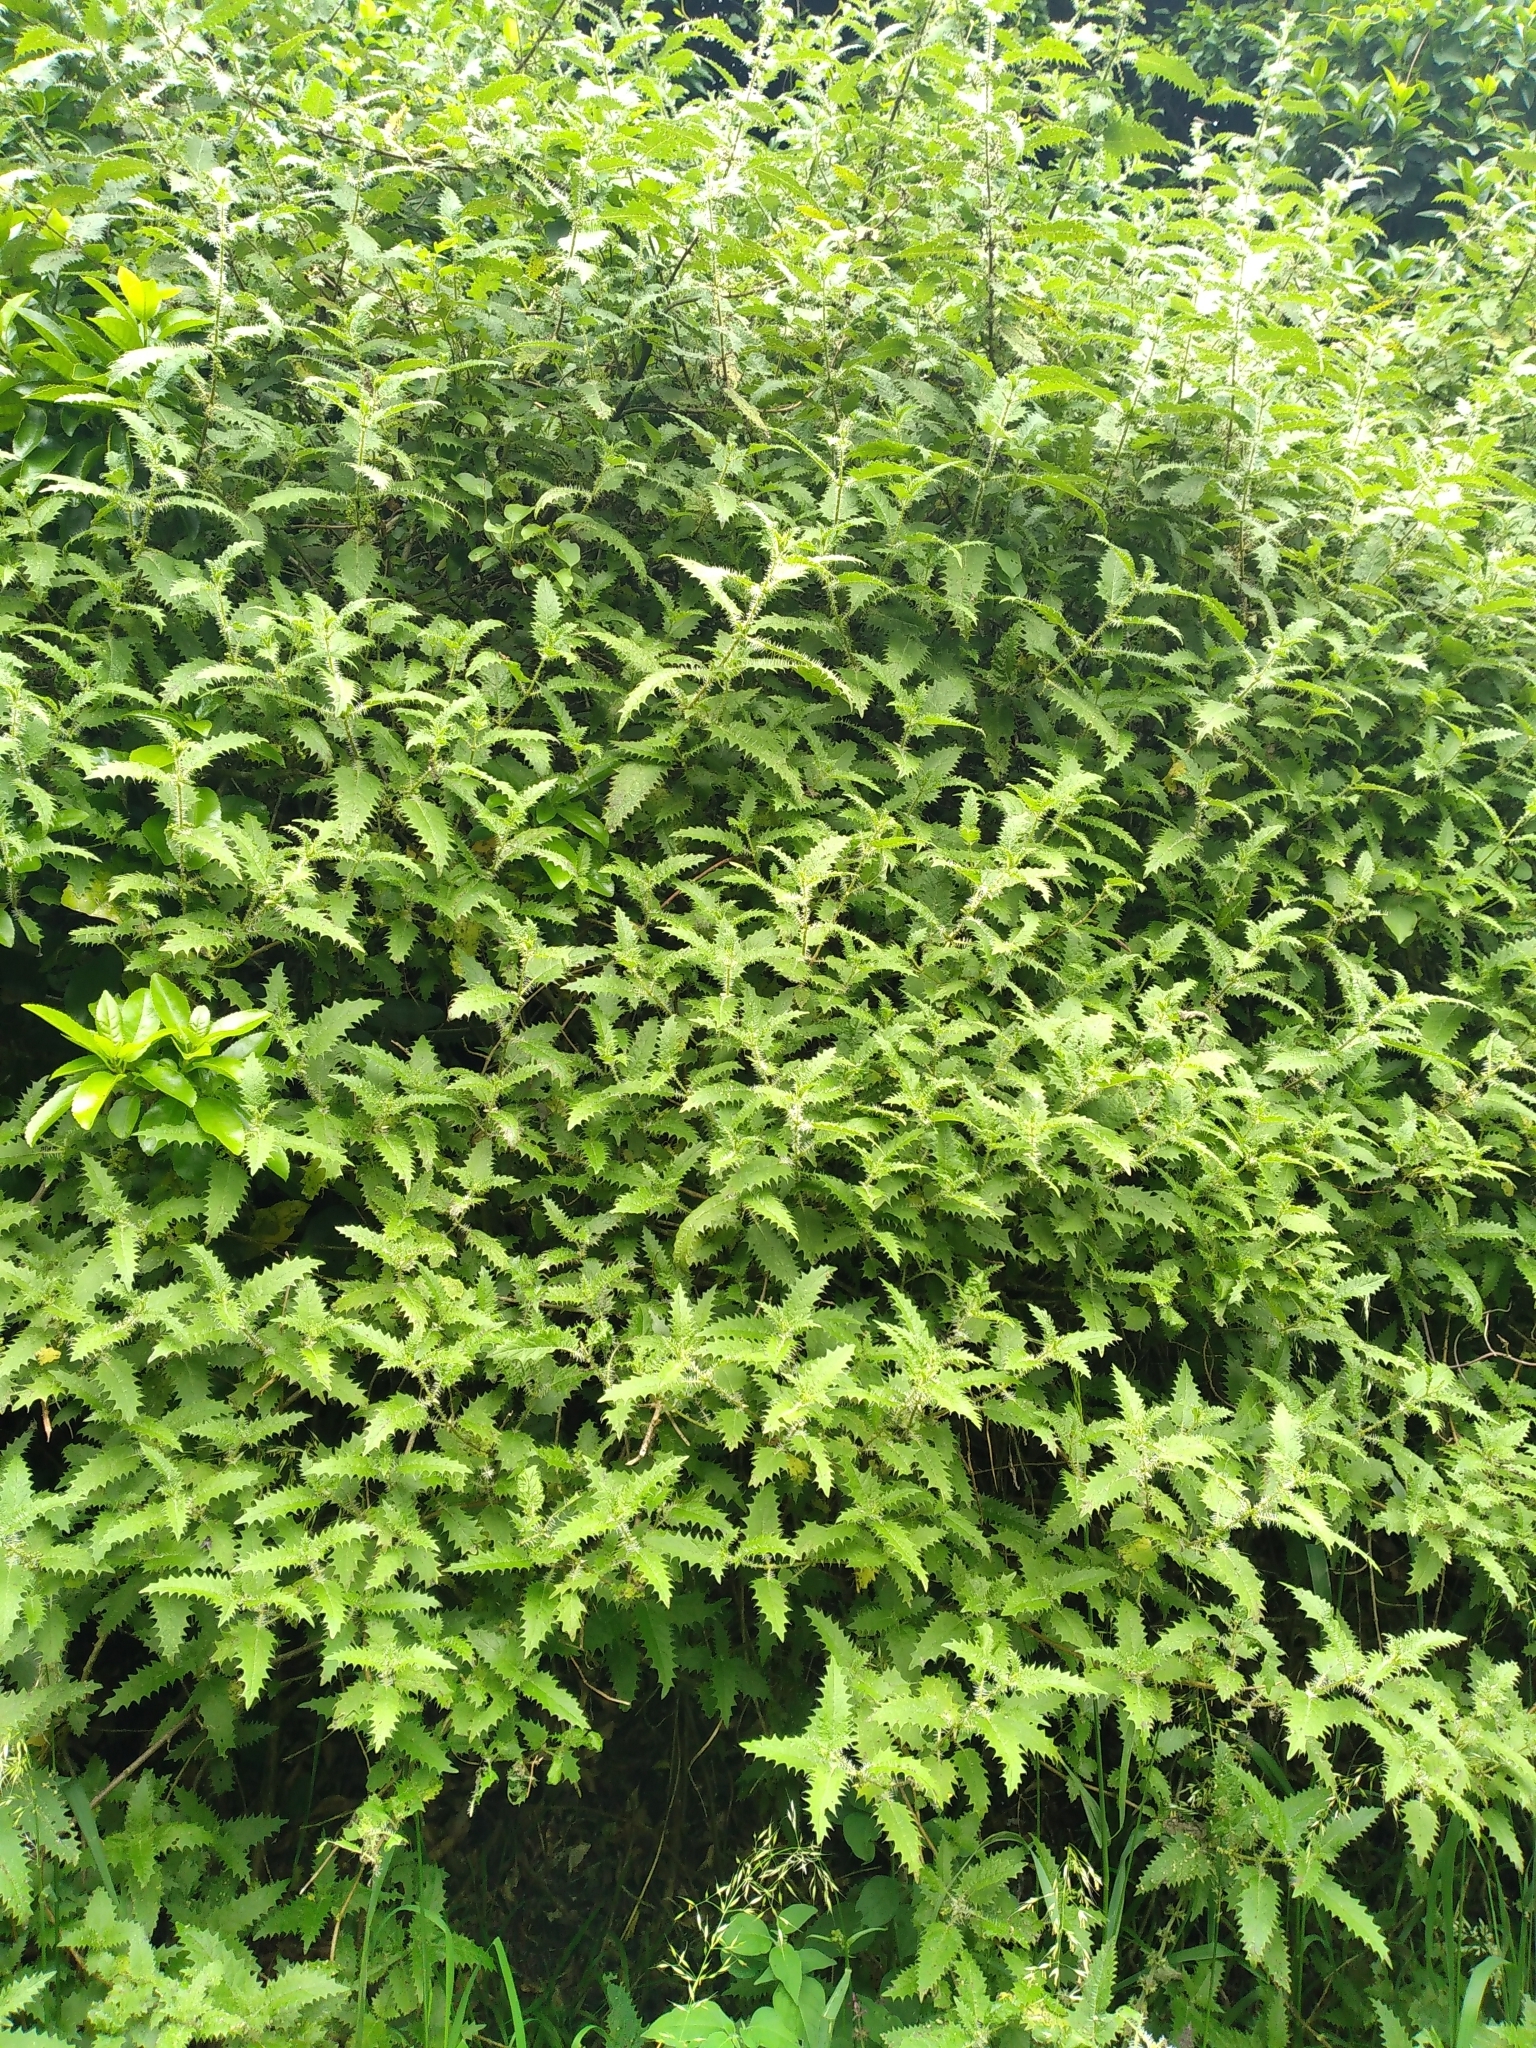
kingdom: Plantae
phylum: Tracheophyta
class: Magnoliopsida
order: Rosales
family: Urticaceae
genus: Urtica
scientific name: Urtica ferox
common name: Tree nettle
